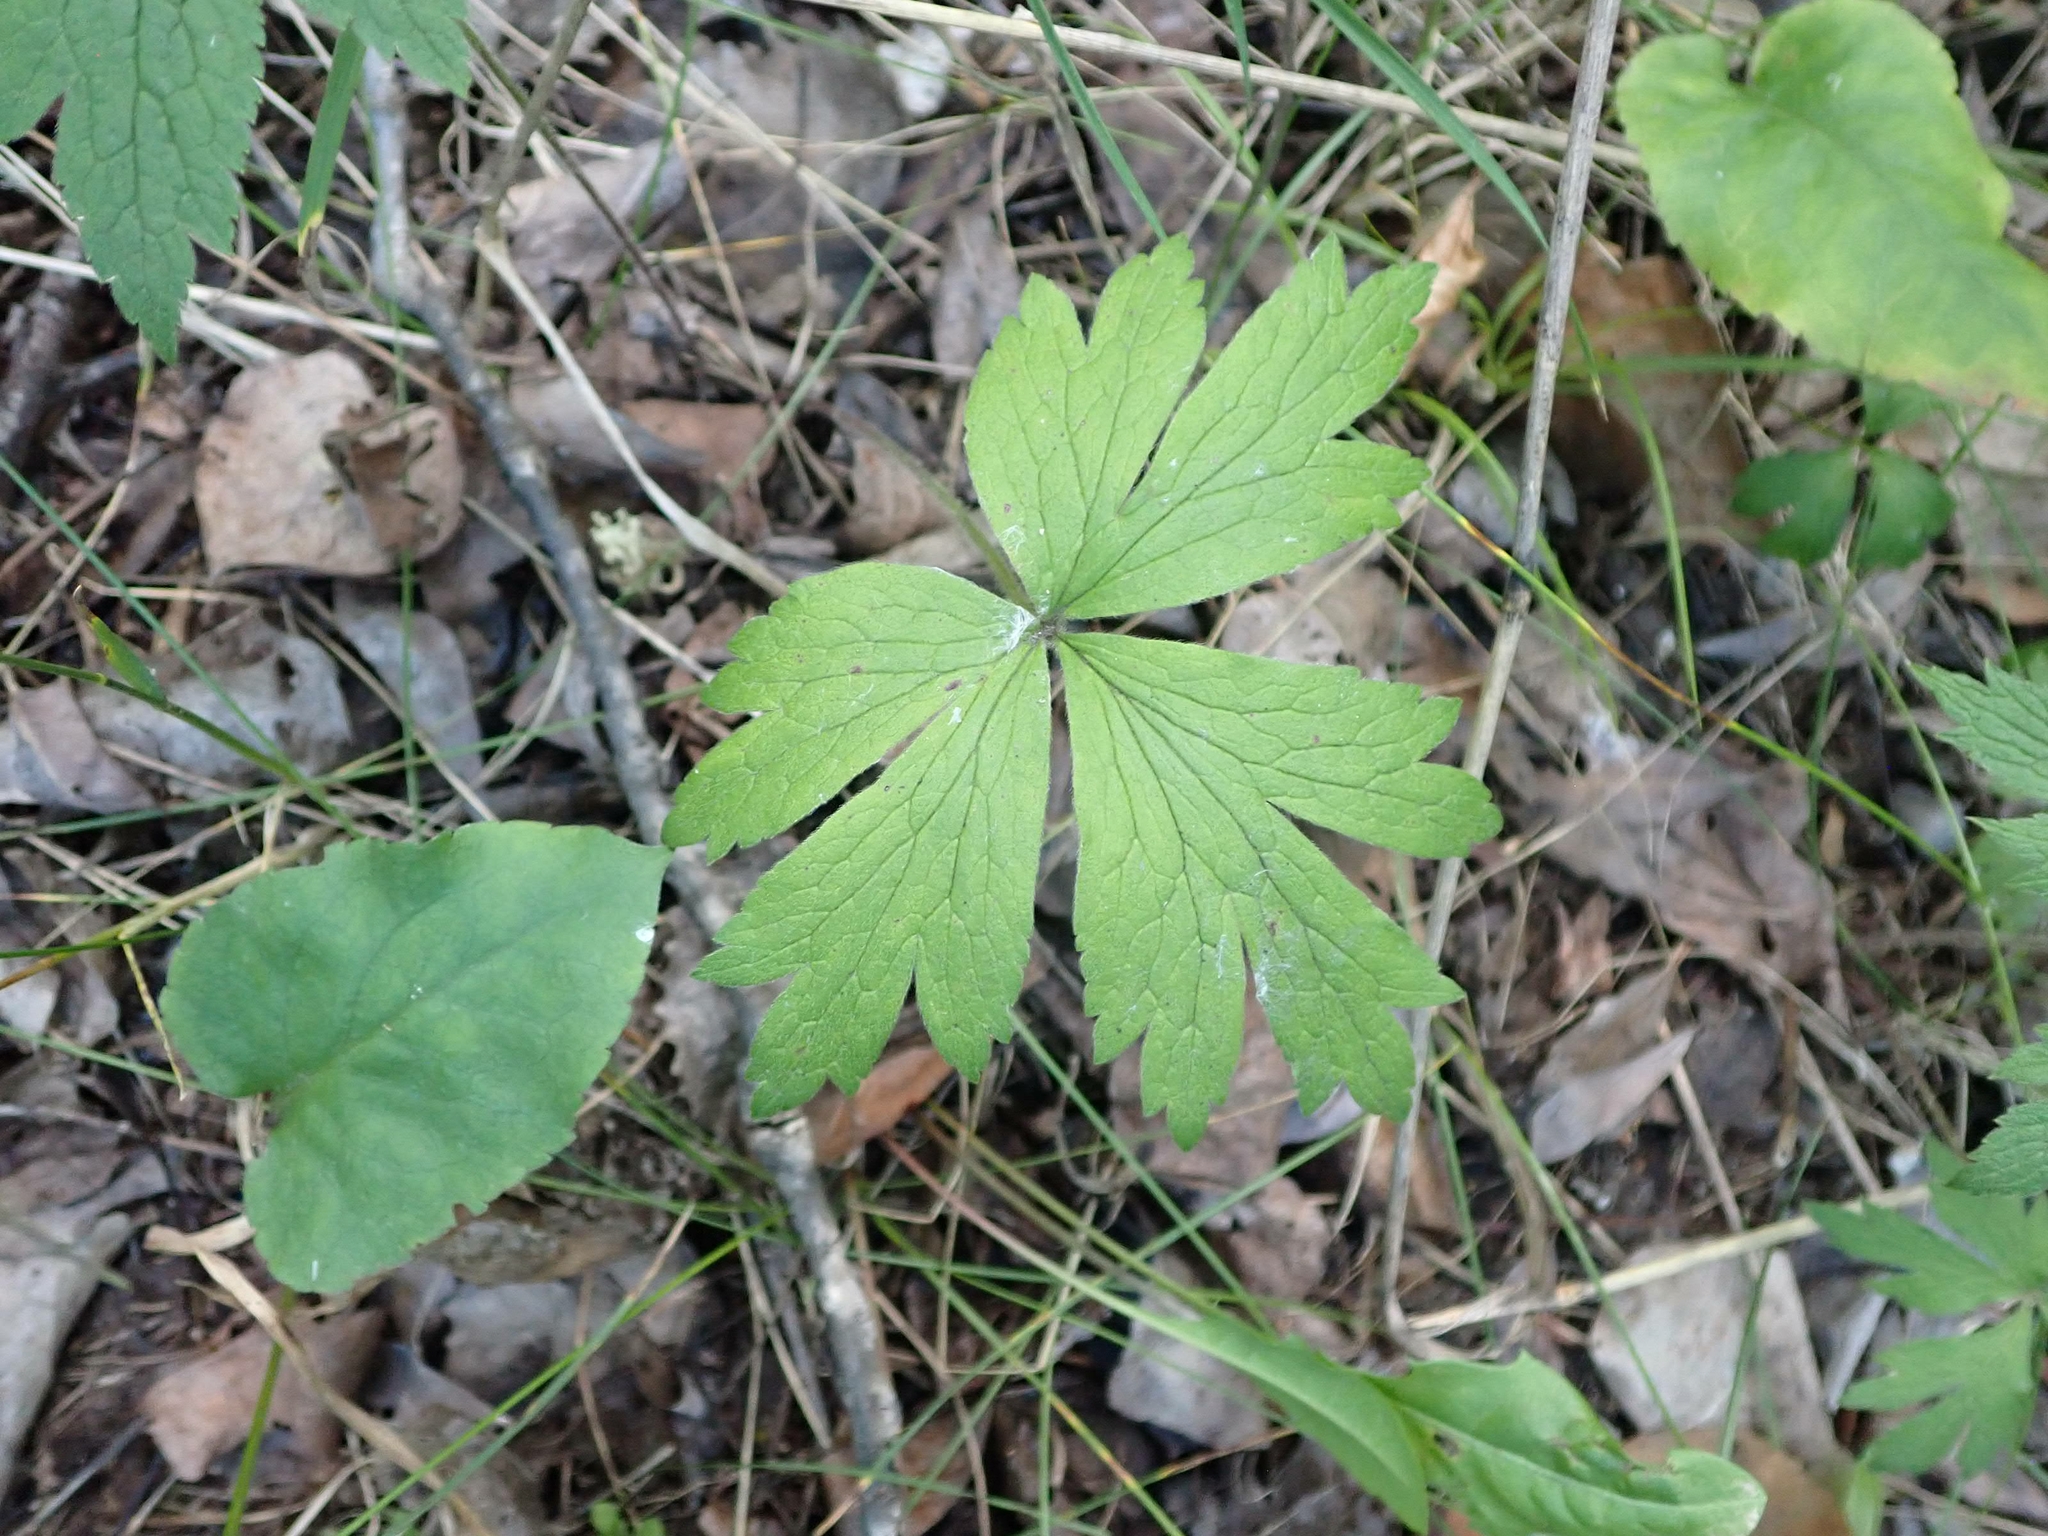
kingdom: Plantae
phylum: Tracheophyta
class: Magnoliopsida
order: Ranunculales
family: Ranunculaceae
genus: Anemonastrum
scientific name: Anemonastrum canadense
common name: Canada anemone
